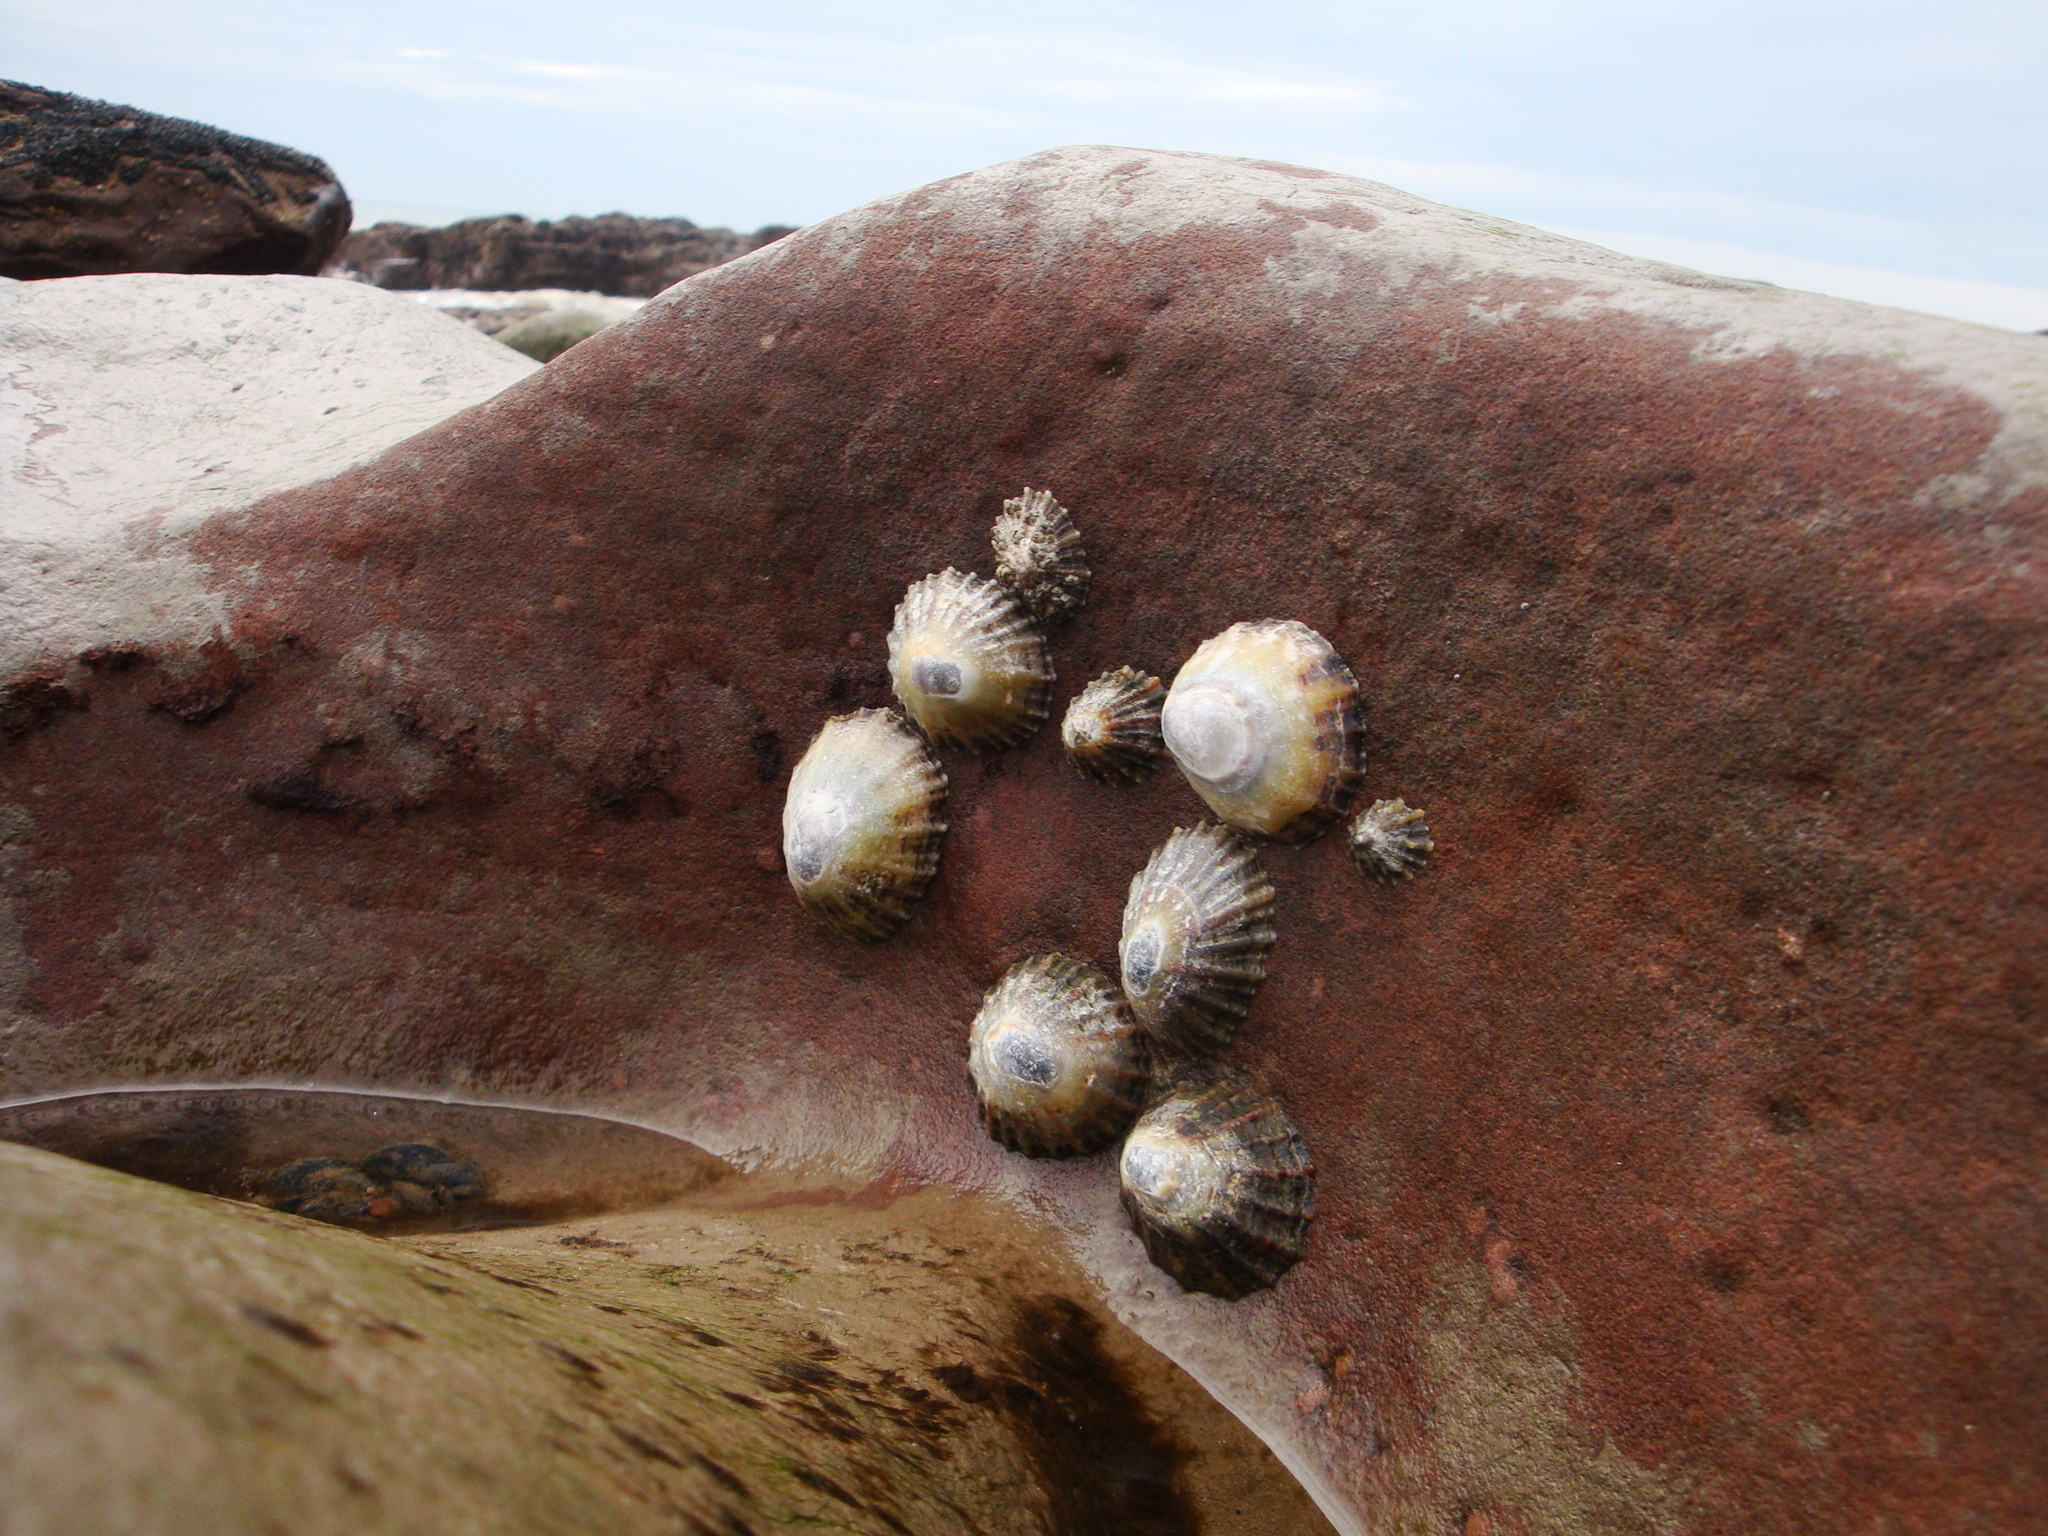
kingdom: Animalia
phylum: Mollusca
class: Gastropoda
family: Patellidae
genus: Patella
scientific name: Patella vulgata
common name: Common limpet
